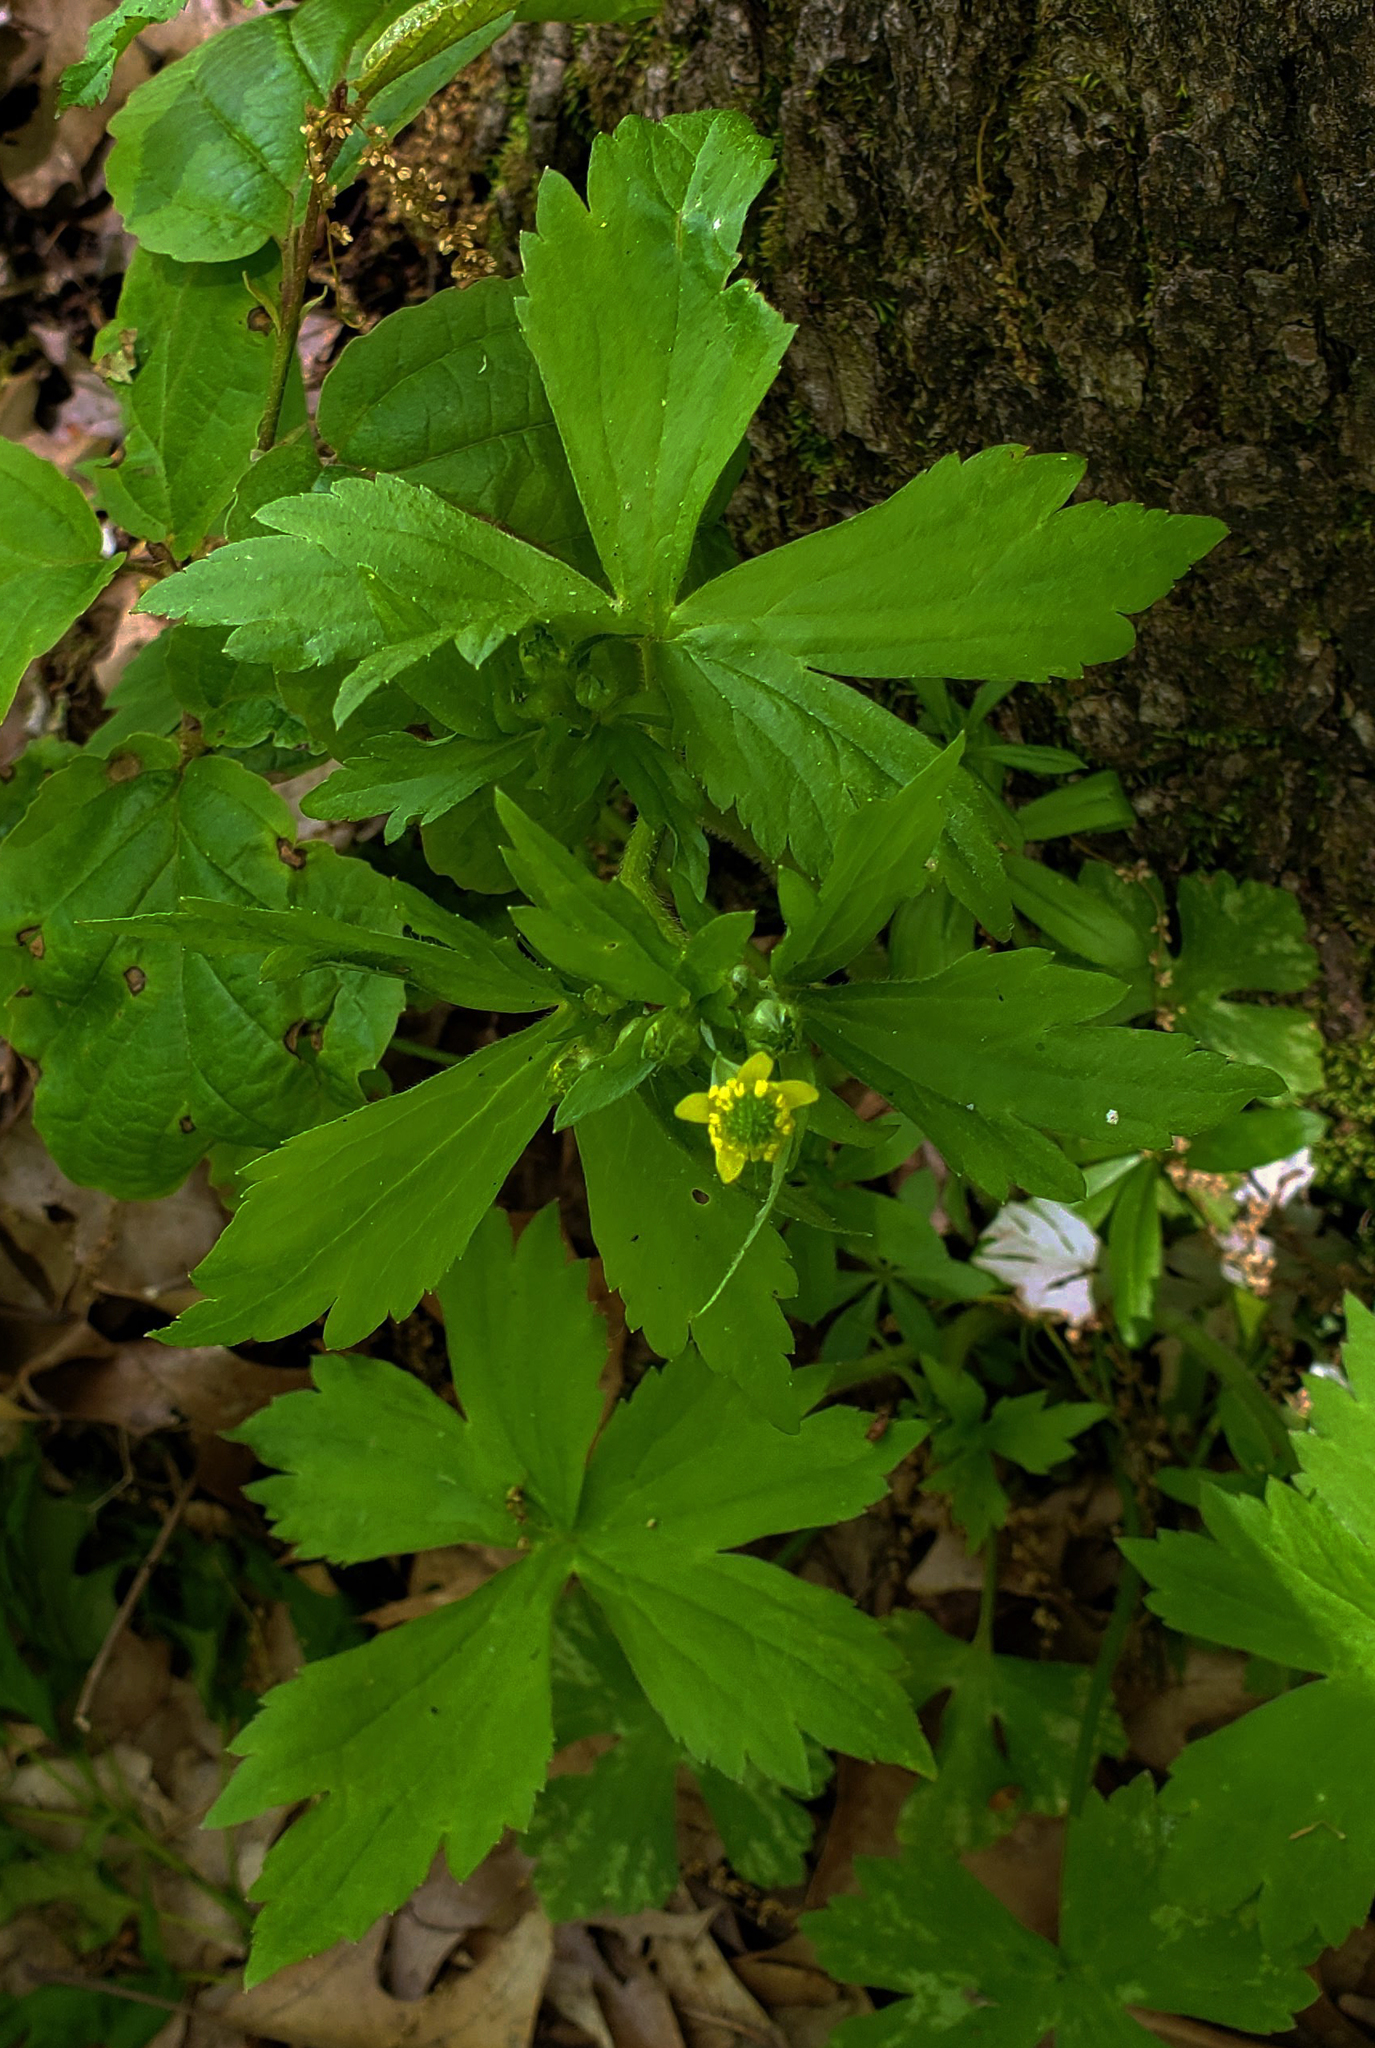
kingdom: Plantae
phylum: Tracheophyta
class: Magnoliopsida
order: Ranunculales
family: Ranunculaceae
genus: Ranunculus
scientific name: Ranunculus recurvatus
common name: Blisterwort
